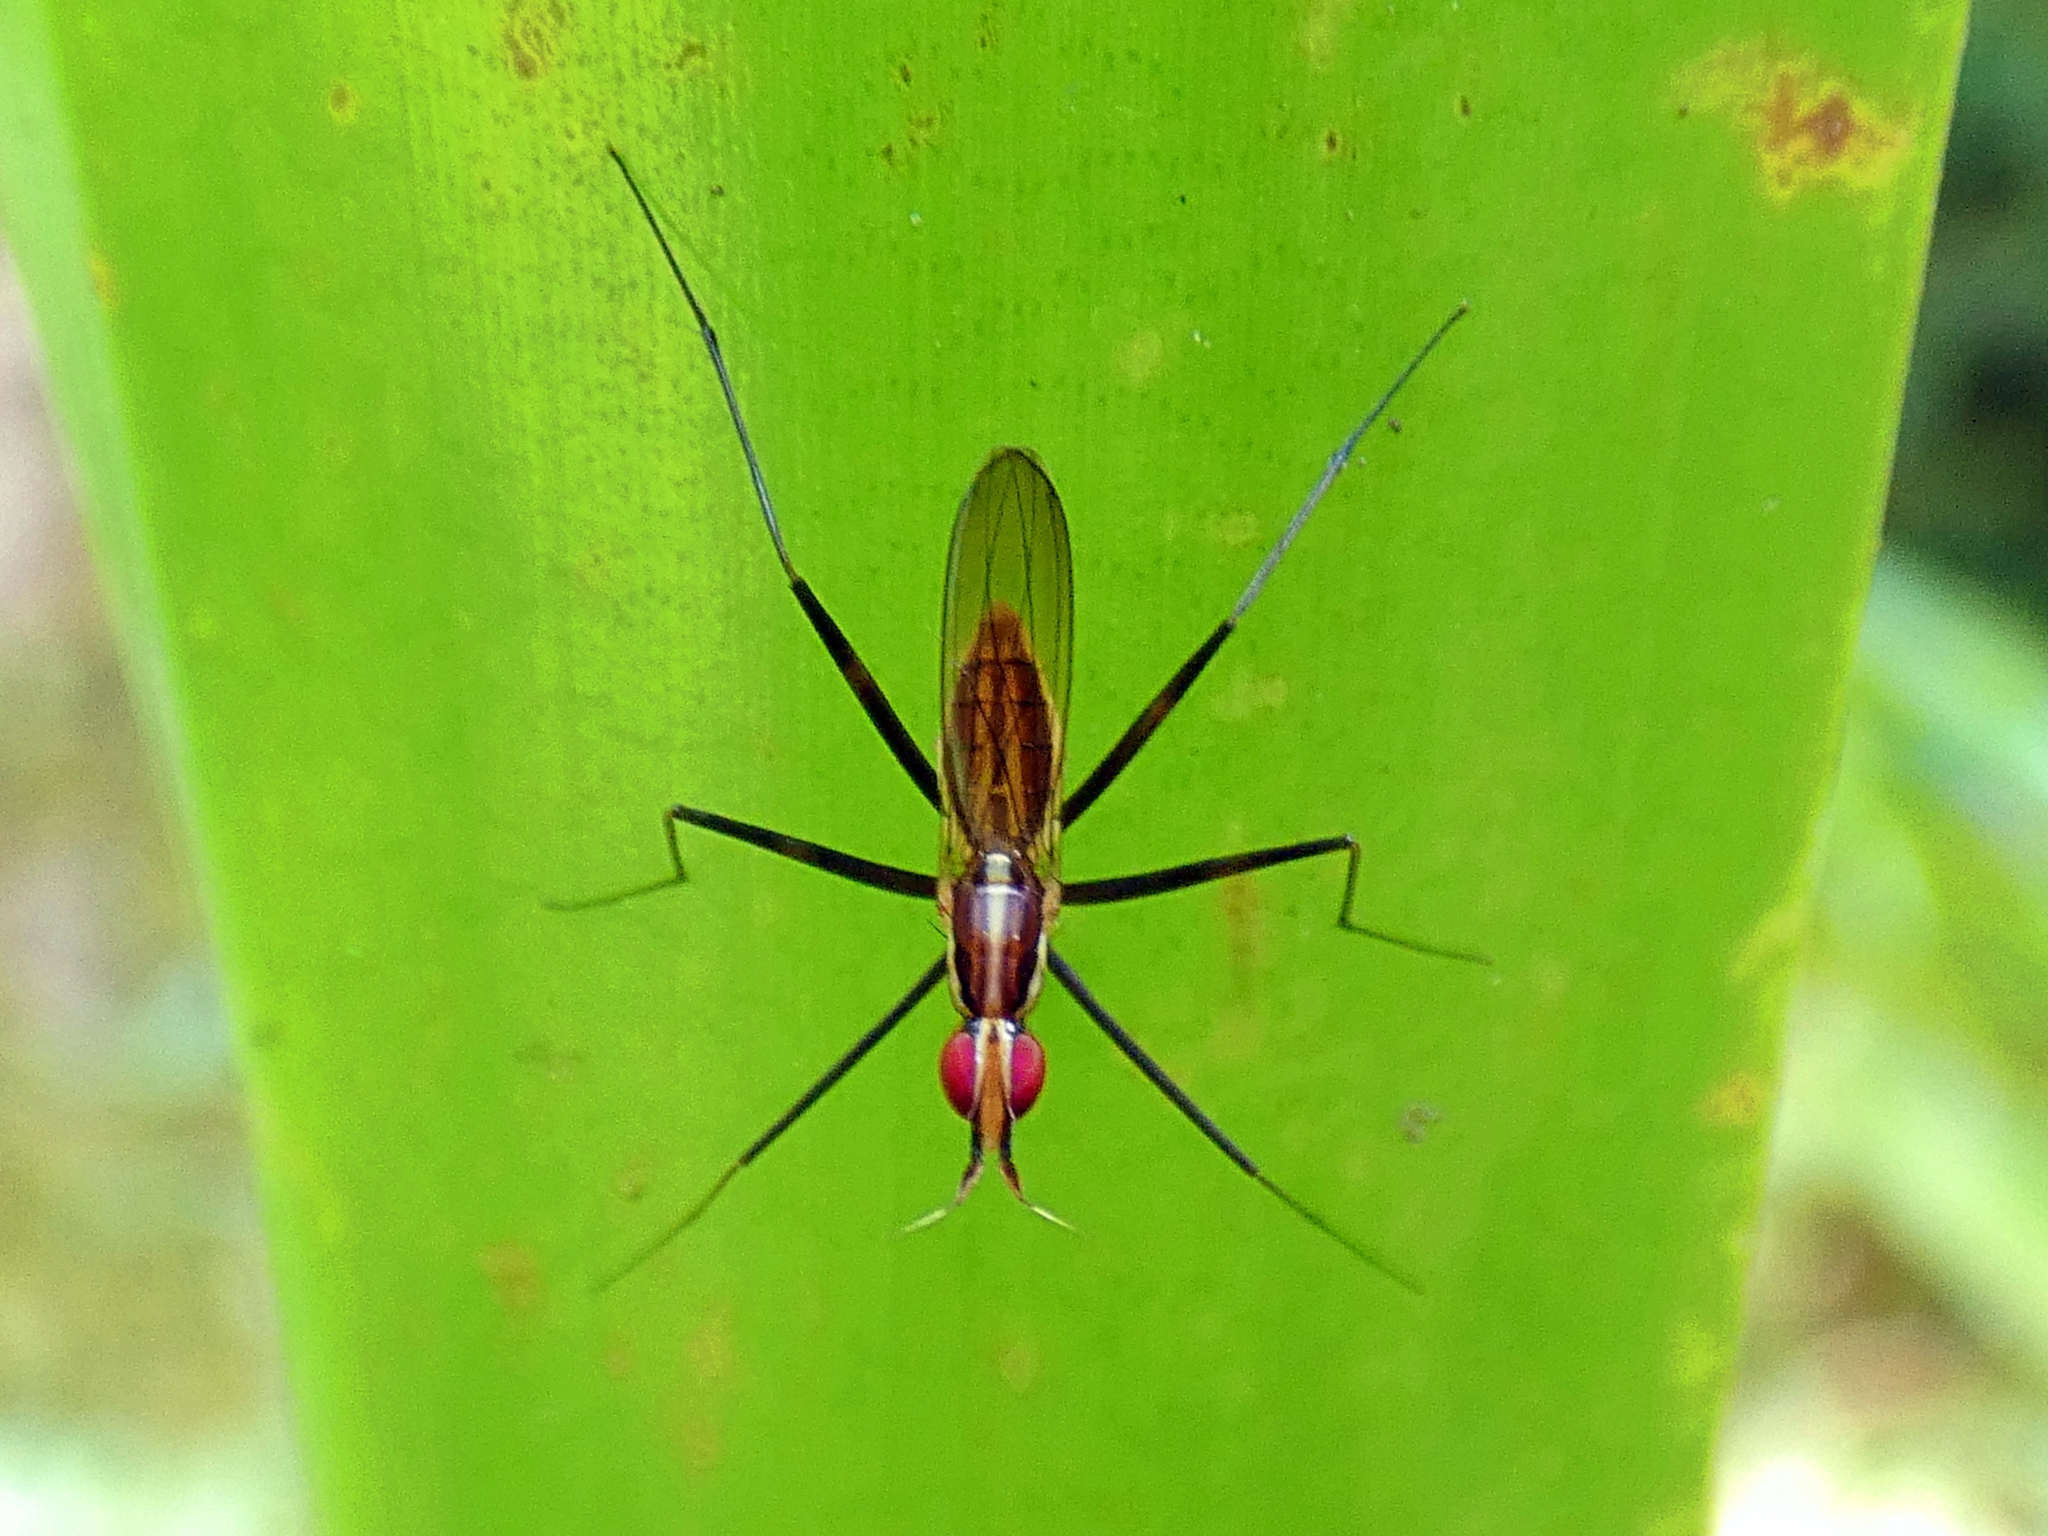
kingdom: Animalia
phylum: Arthropoda
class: Insecta
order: Diptera
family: Neriidae
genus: Telostylinus
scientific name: Telostylinus lineolatus
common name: Banana stalk fly
